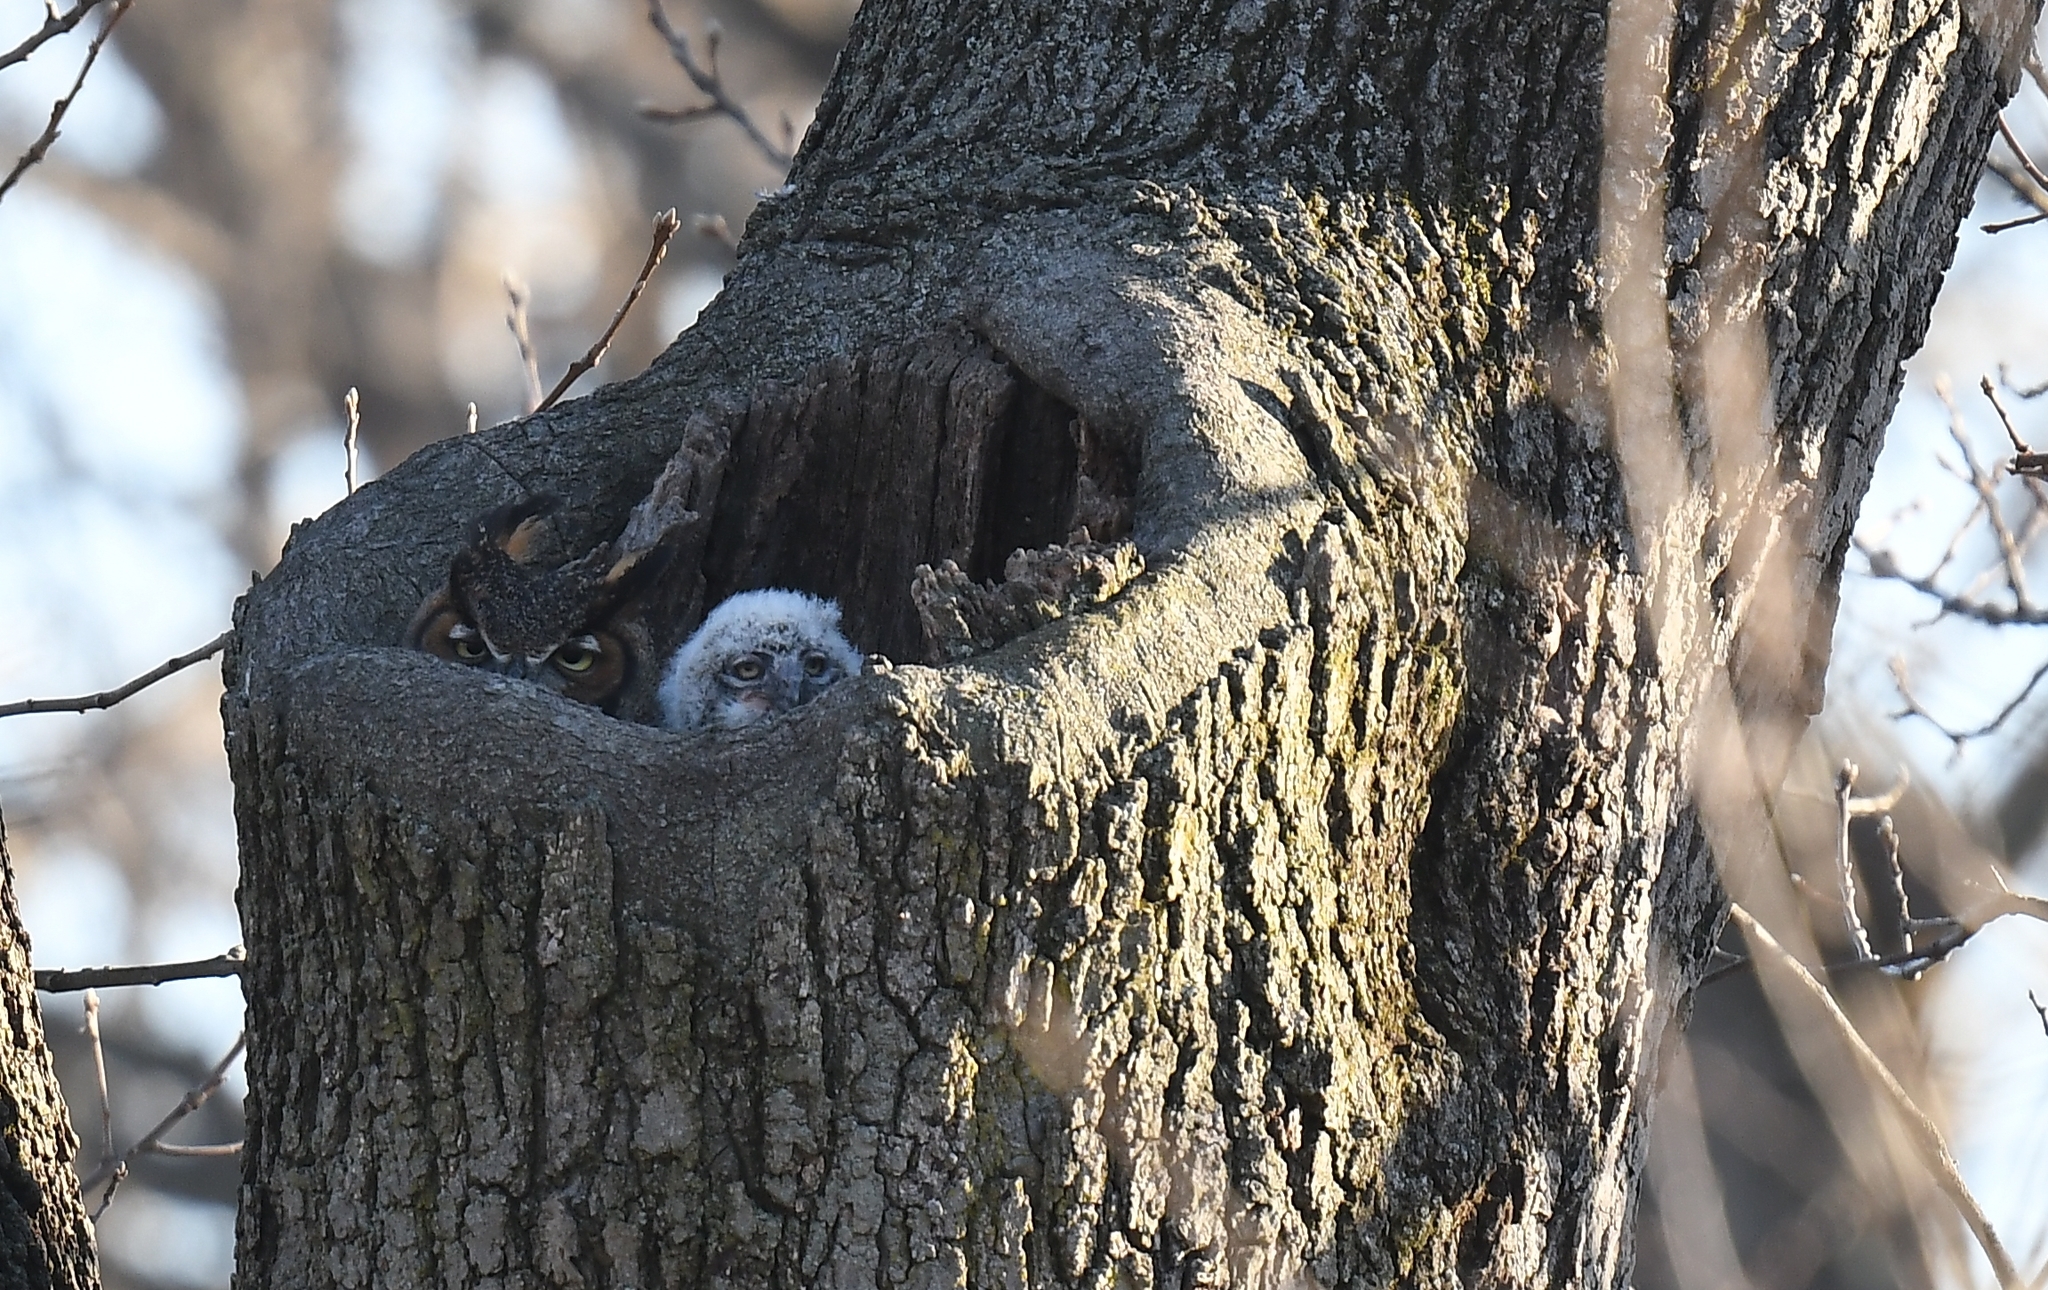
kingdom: Animalia
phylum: Chordata
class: Aves
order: Strigiformes
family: Strigidae
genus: Bubo
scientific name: Bubo virginianus
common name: Great horned owl
